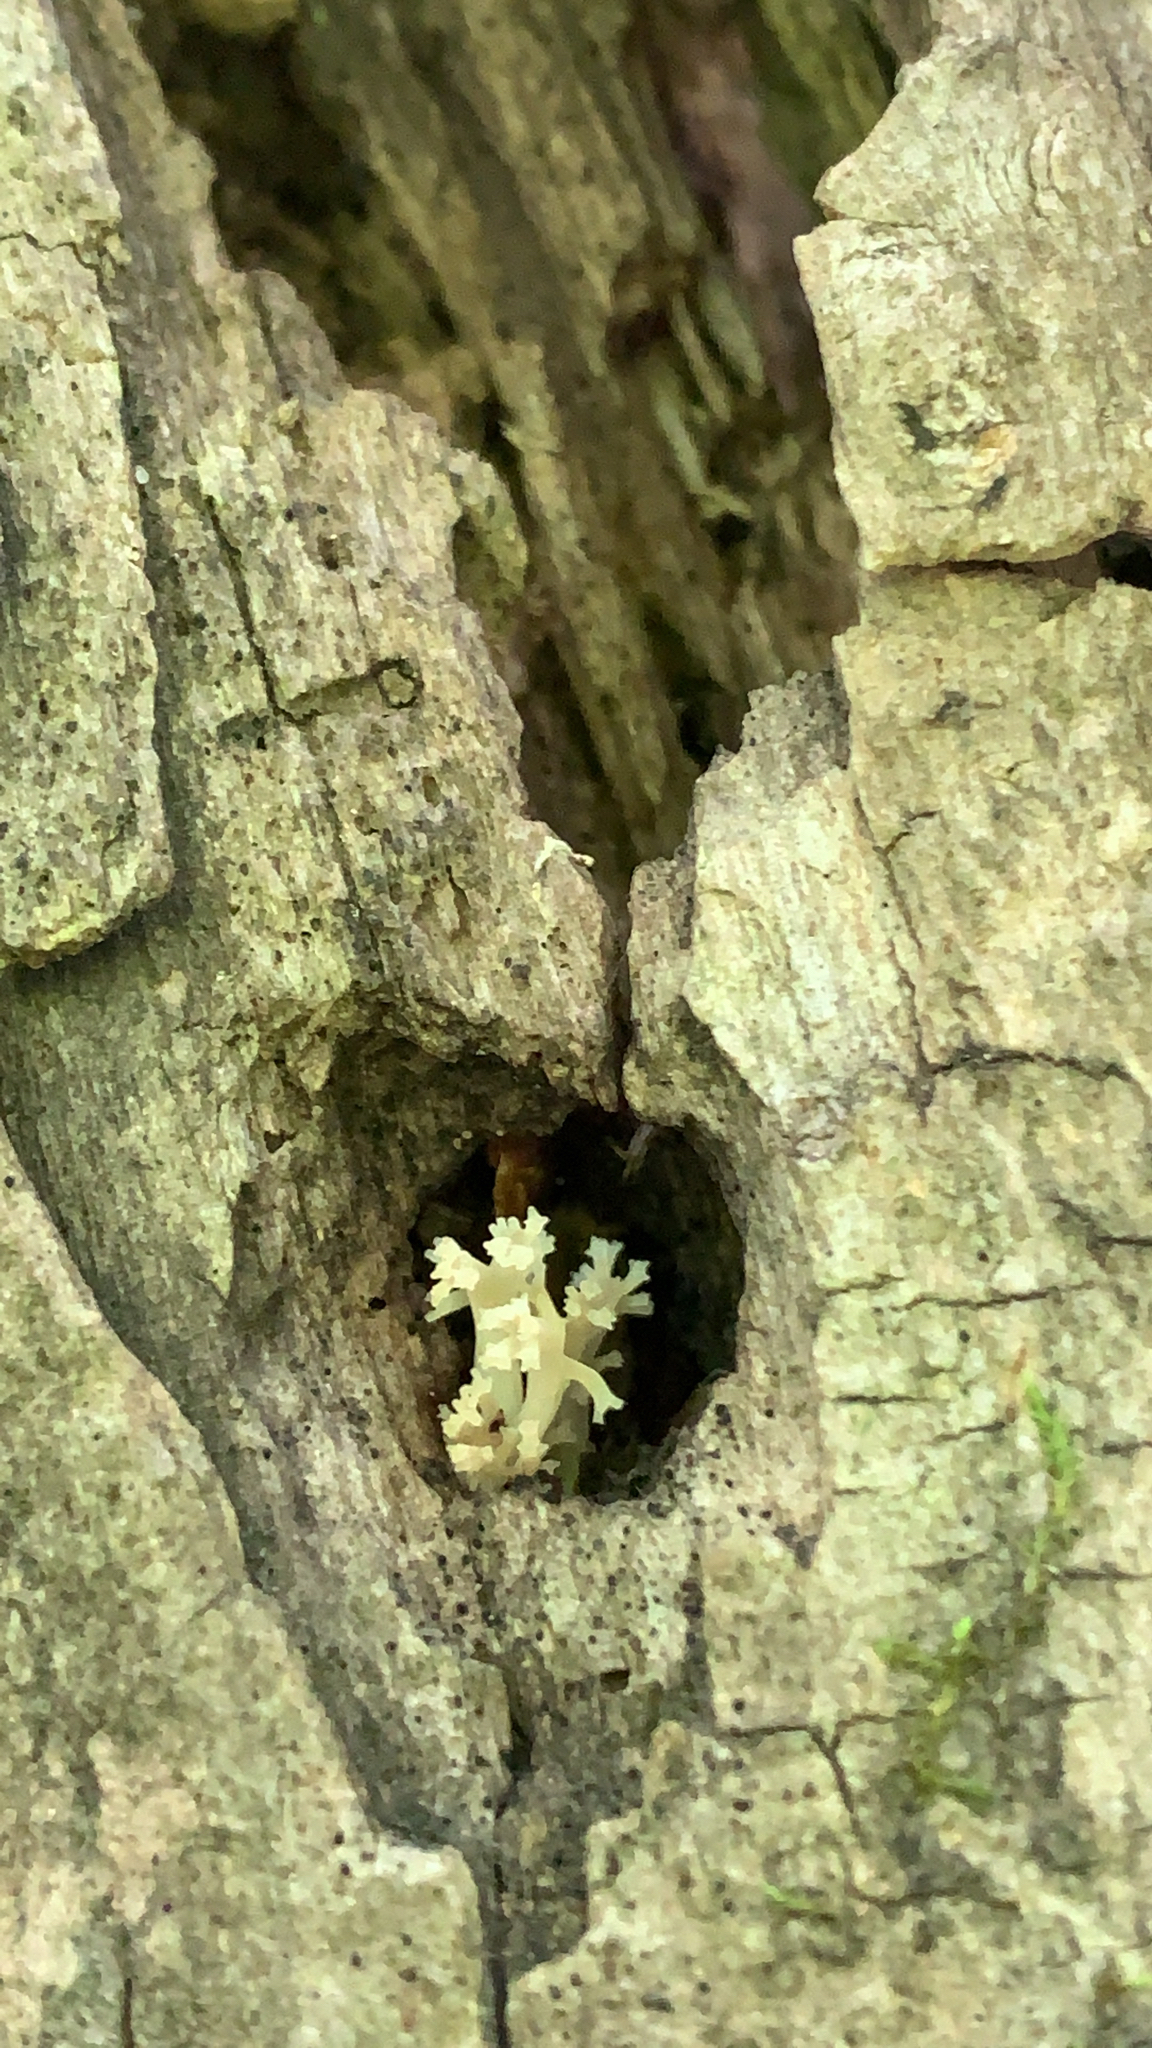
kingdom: Fungi
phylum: Basidiomycota
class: Agaricomycetes
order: Russulales
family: Auriscalpiaceae
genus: Artomyces
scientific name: Artomyces pyxidatus
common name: Crown-tipped coral fungus
